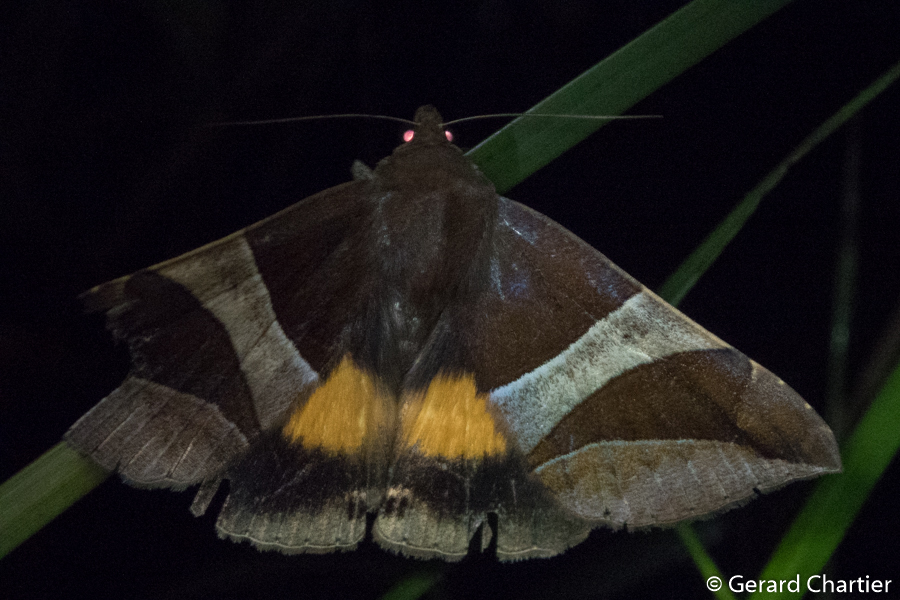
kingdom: Animalia
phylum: Arthropoda
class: Insecta
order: Lepidoptera
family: Erebidae
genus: Bastilla
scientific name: Bastilla fulvotaenia
